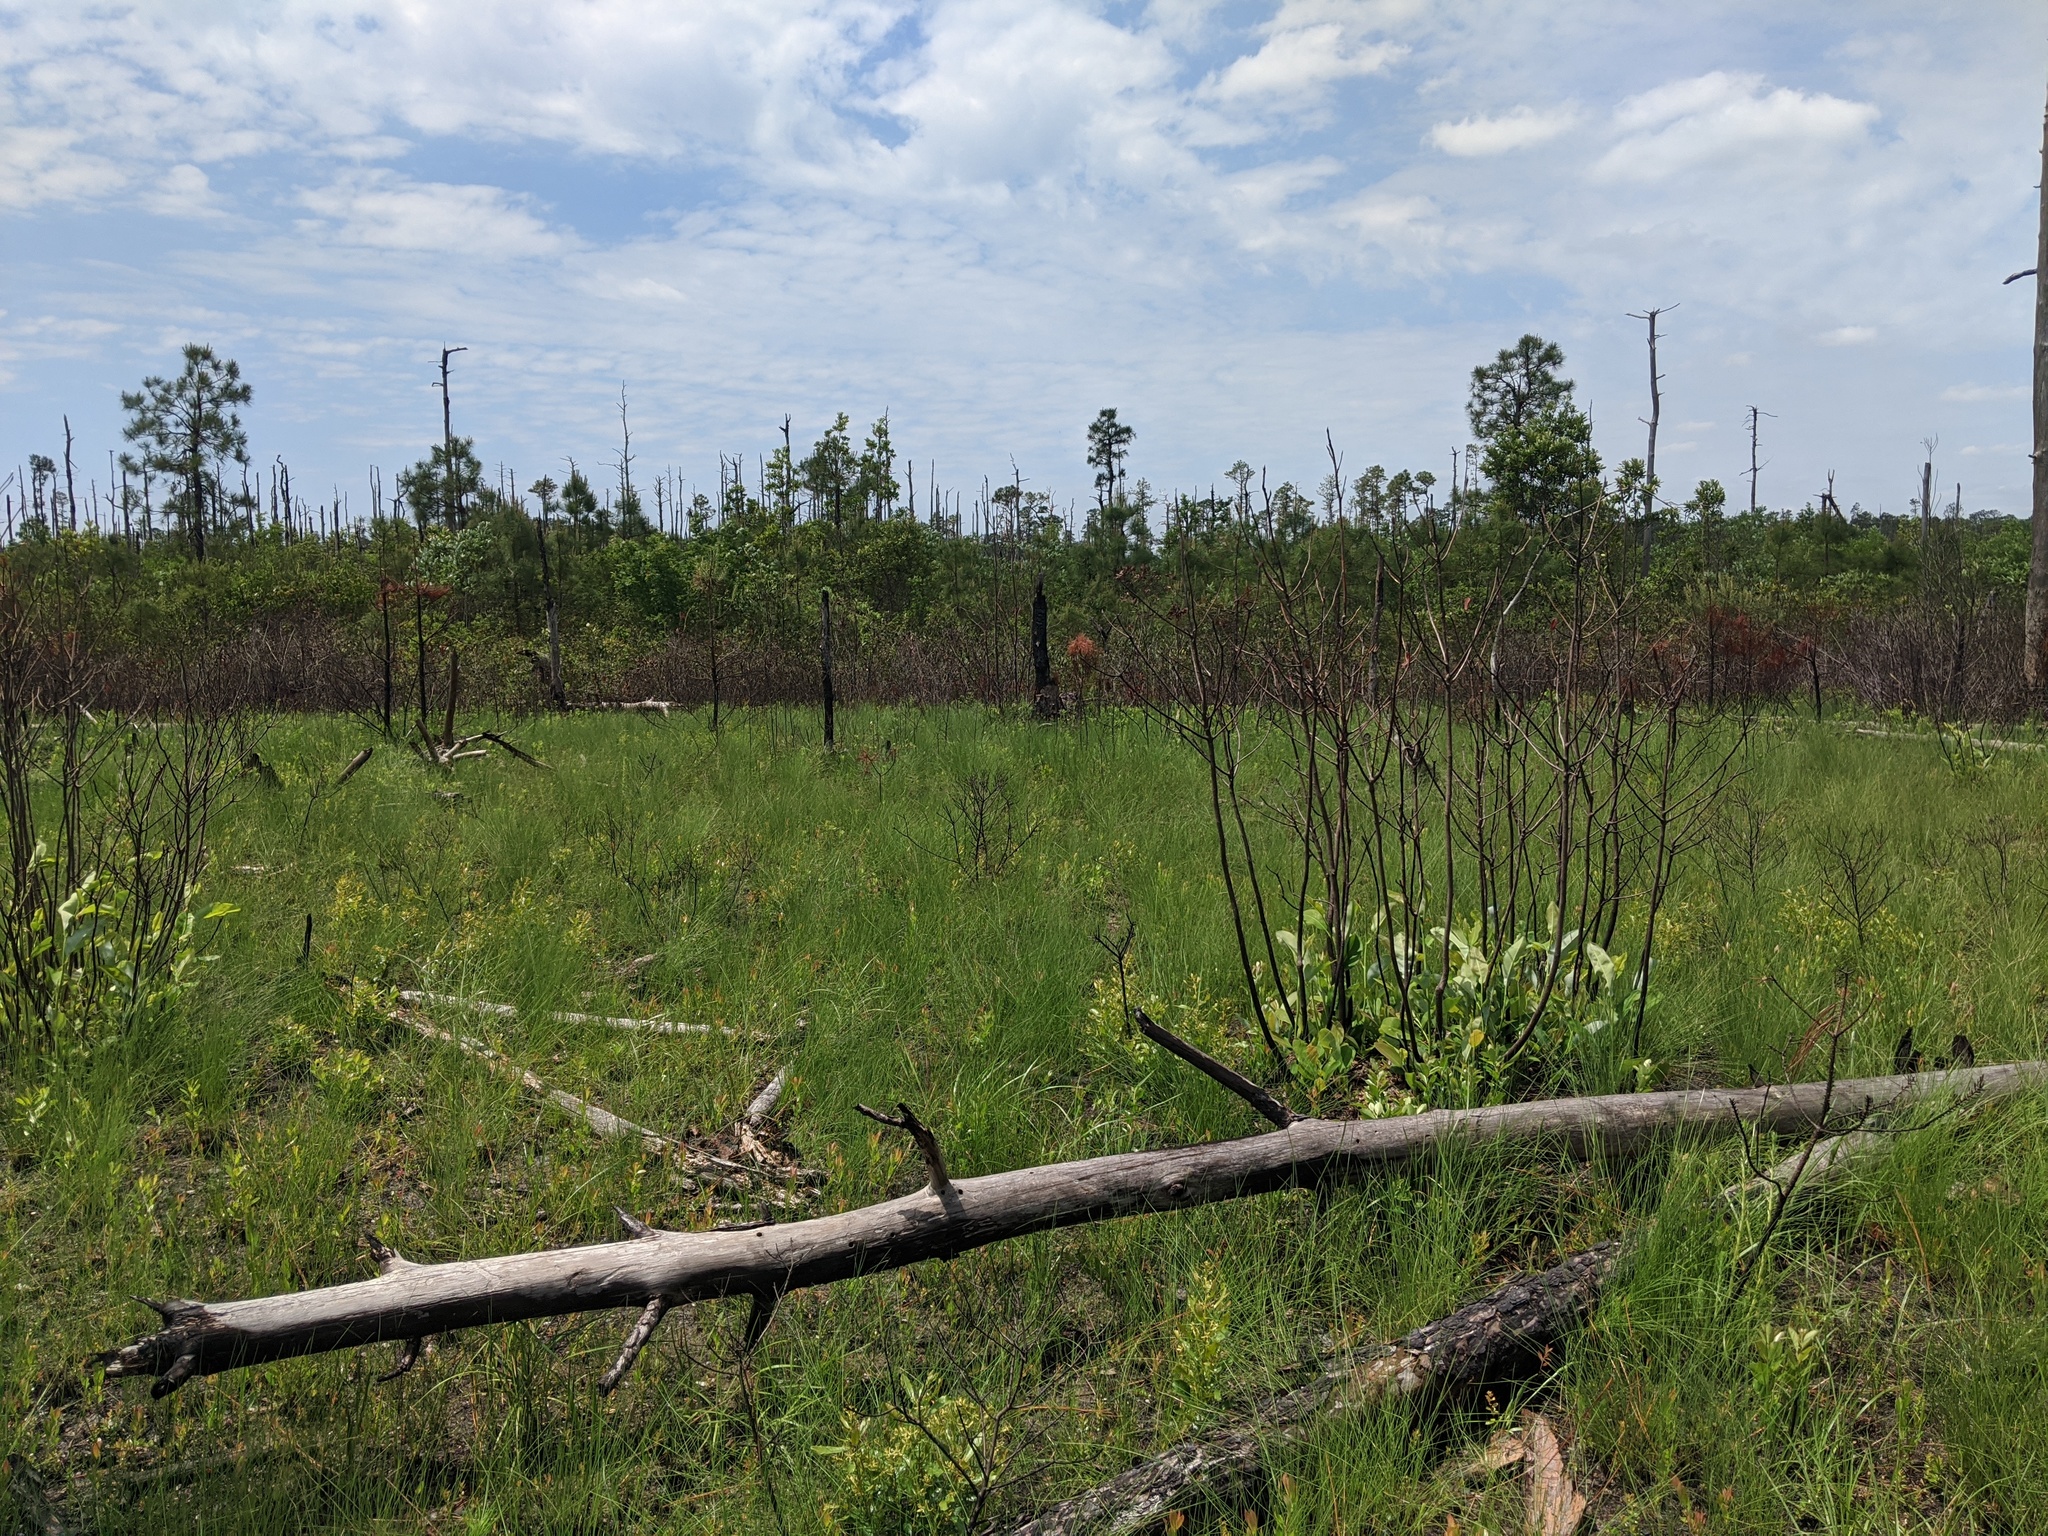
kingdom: Plantae
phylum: Tracheophyta
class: Magnoliopsida
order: Magnoliales
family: Magnoliaceae
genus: Magnolia
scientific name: Magnolia virginiana
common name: Swamp bay
